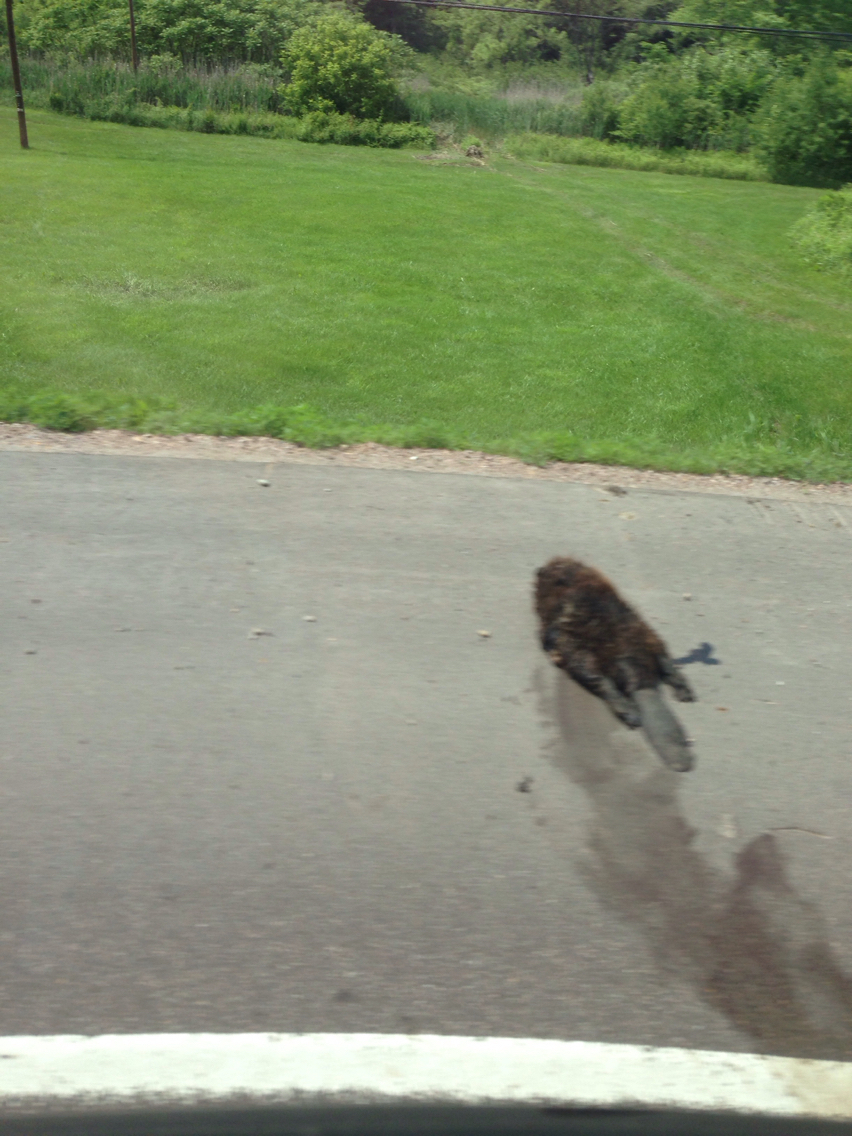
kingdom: Animalia
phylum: Chordata
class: Mammalia
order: Rodentia
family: Castoridae
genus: Castor
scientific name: Castor canadensis
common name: American beaver
